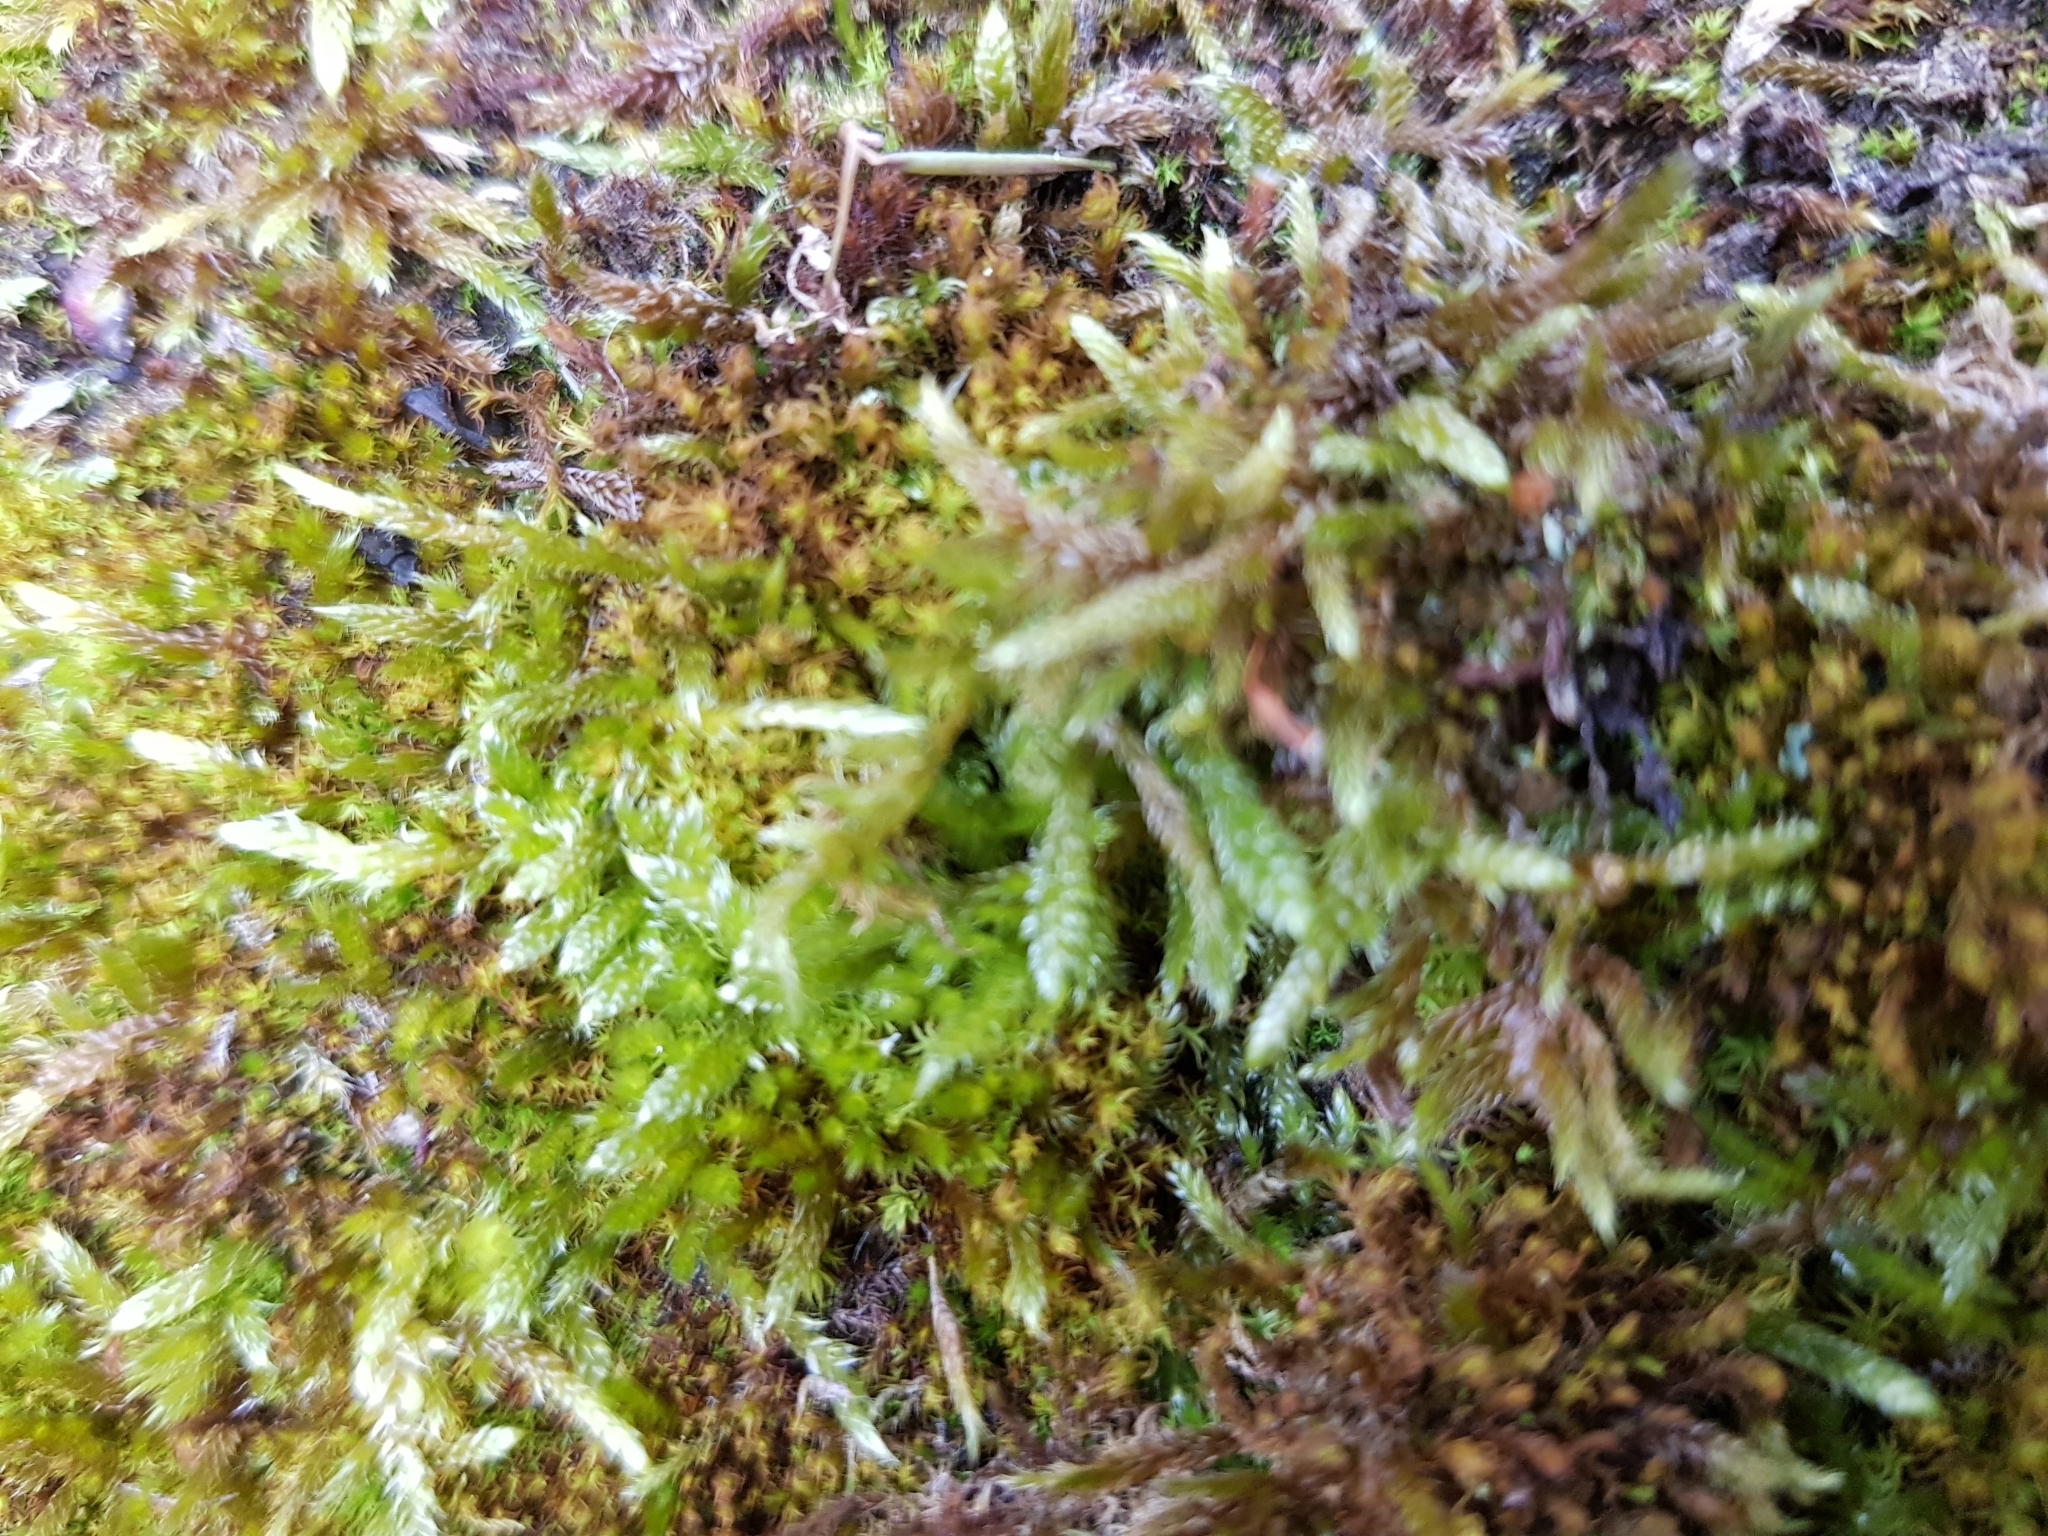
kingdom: Plantae
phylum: Bryophyta
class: Bryopsida
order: Hypnales
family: Brachytheciaceae
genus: Brachythecium
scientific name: Brachythecium rutabulum
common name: Rough-stalked feather-moss
